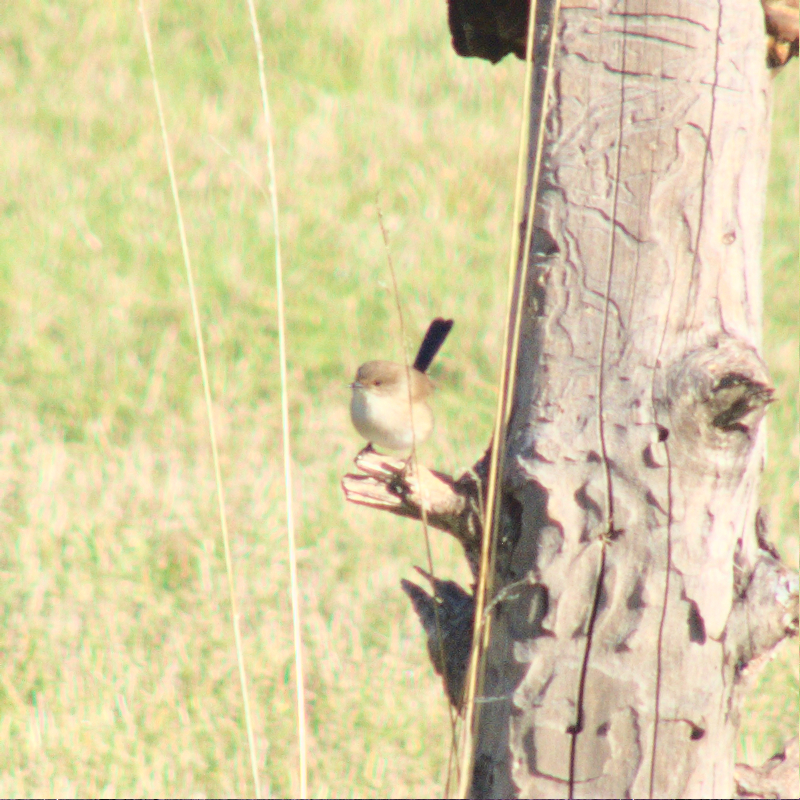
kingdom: Animalia
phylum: Chordata
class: Aves
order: Passeriformes
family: Maluridae
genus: Malurus
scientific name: Malurus cyaneus
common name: Superb fairywren
